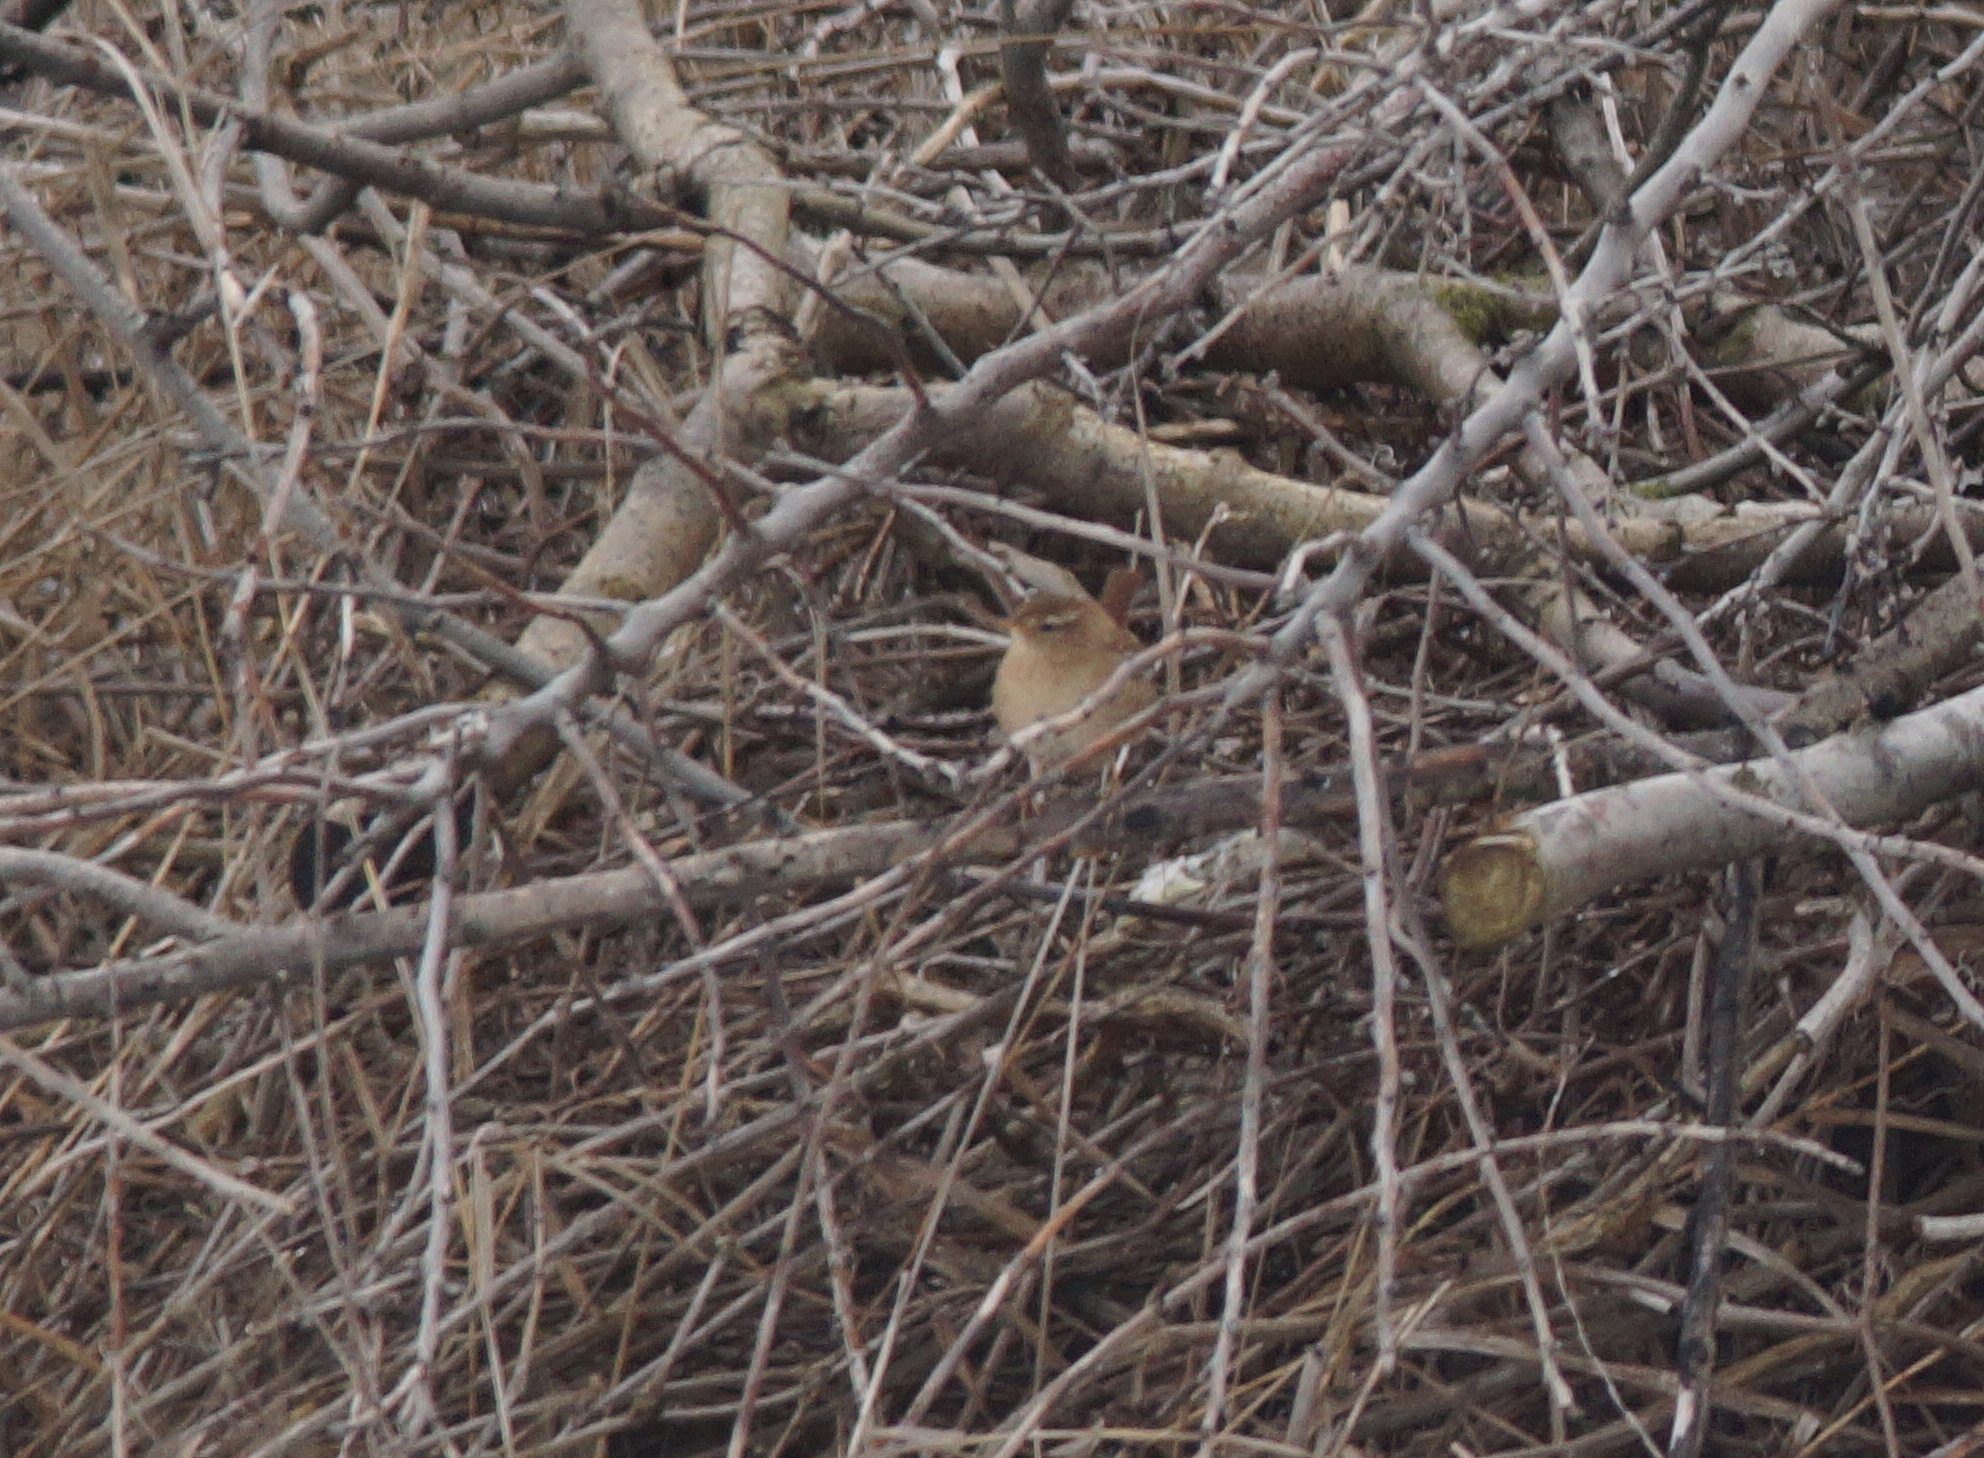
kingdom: Animalia
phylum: Chordata
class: Aves
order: Passeriformes
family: Troglodytidae
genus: Troglodytes
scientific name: Troglodytes troglodytes
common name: Eurasian wren
